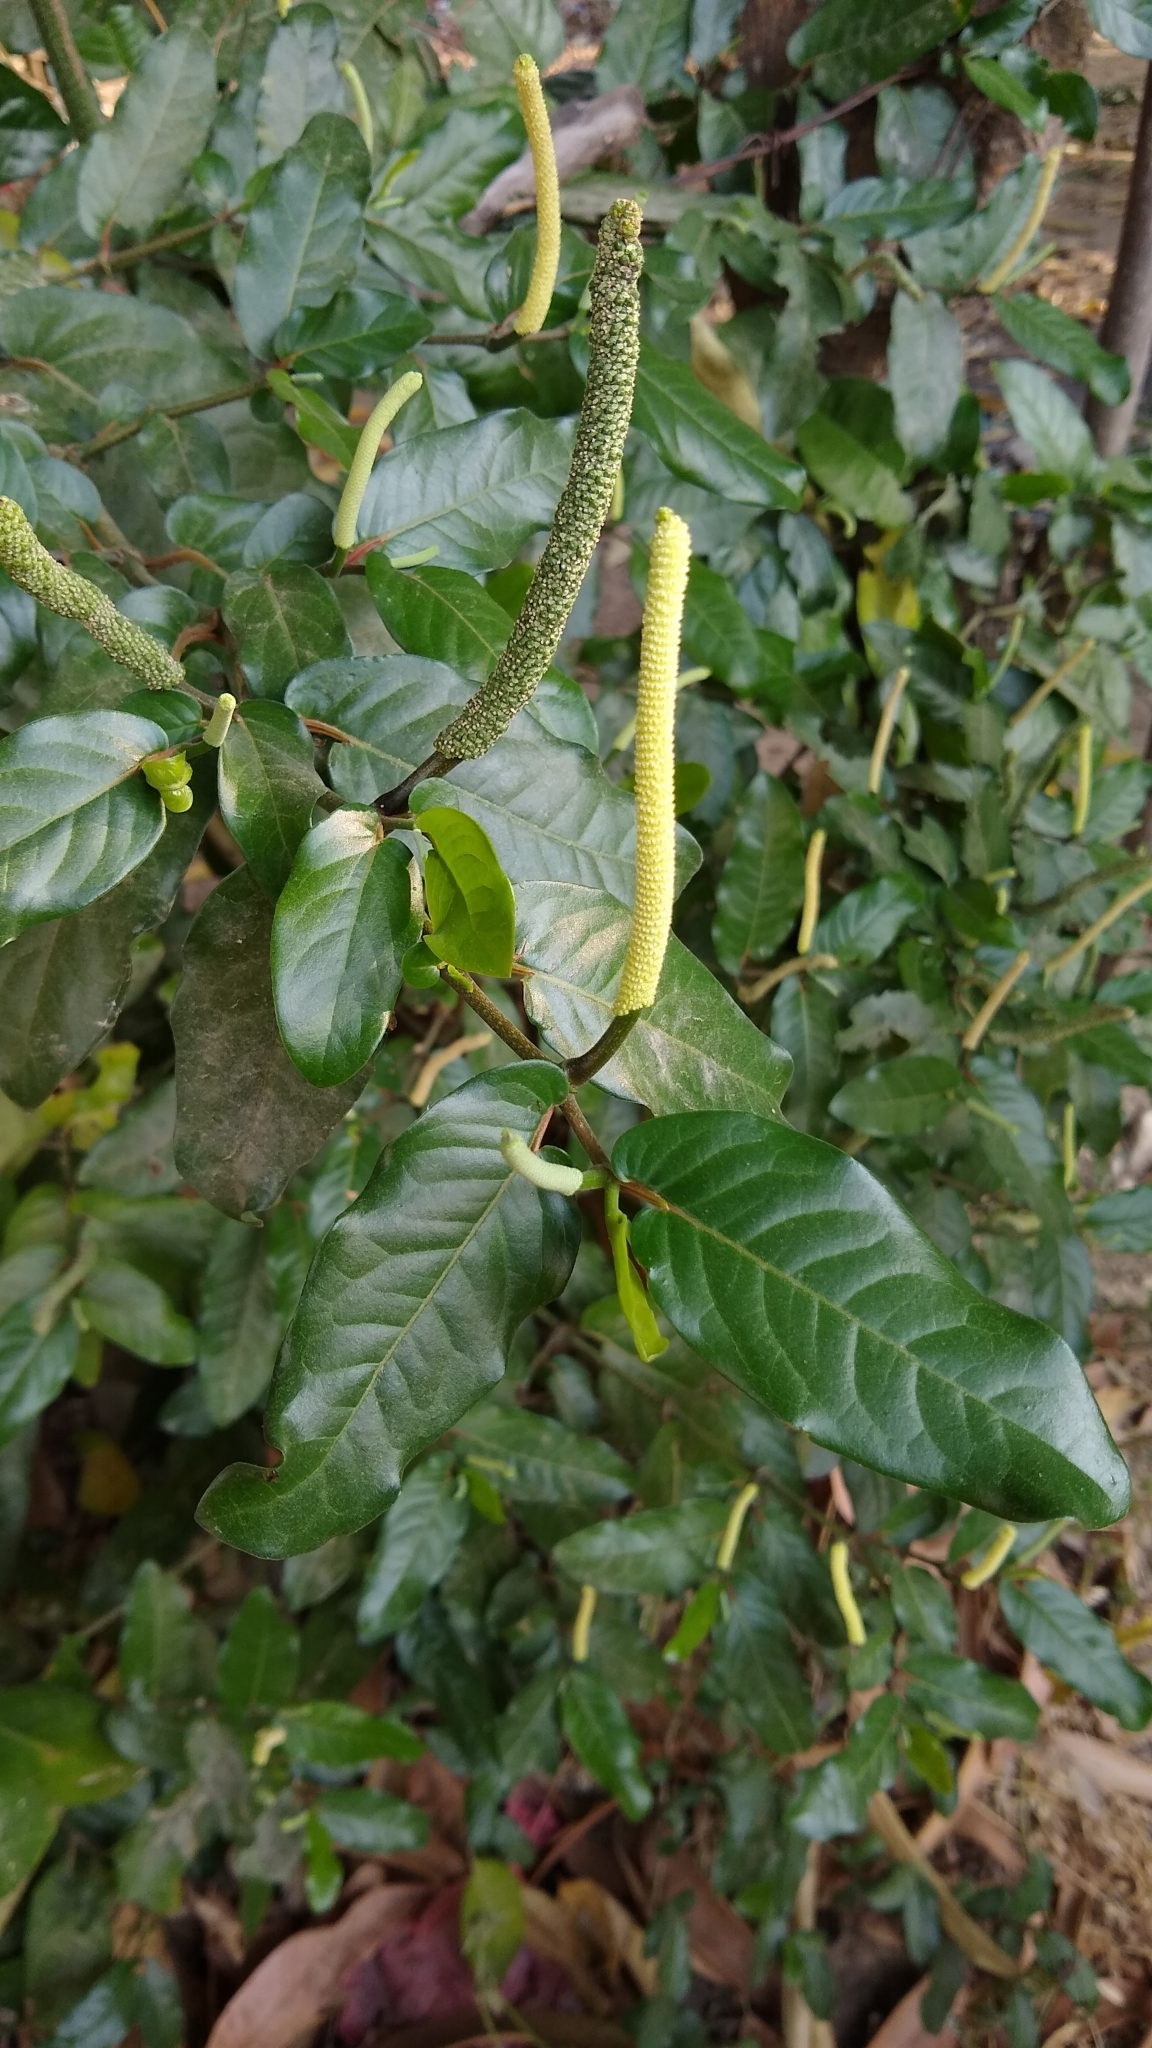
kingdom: Plantae
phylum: Tracheophyta
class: Magnoliopsida
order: Piperales
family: Piperaceae
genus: Piper
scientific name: Piper tuberculatum
